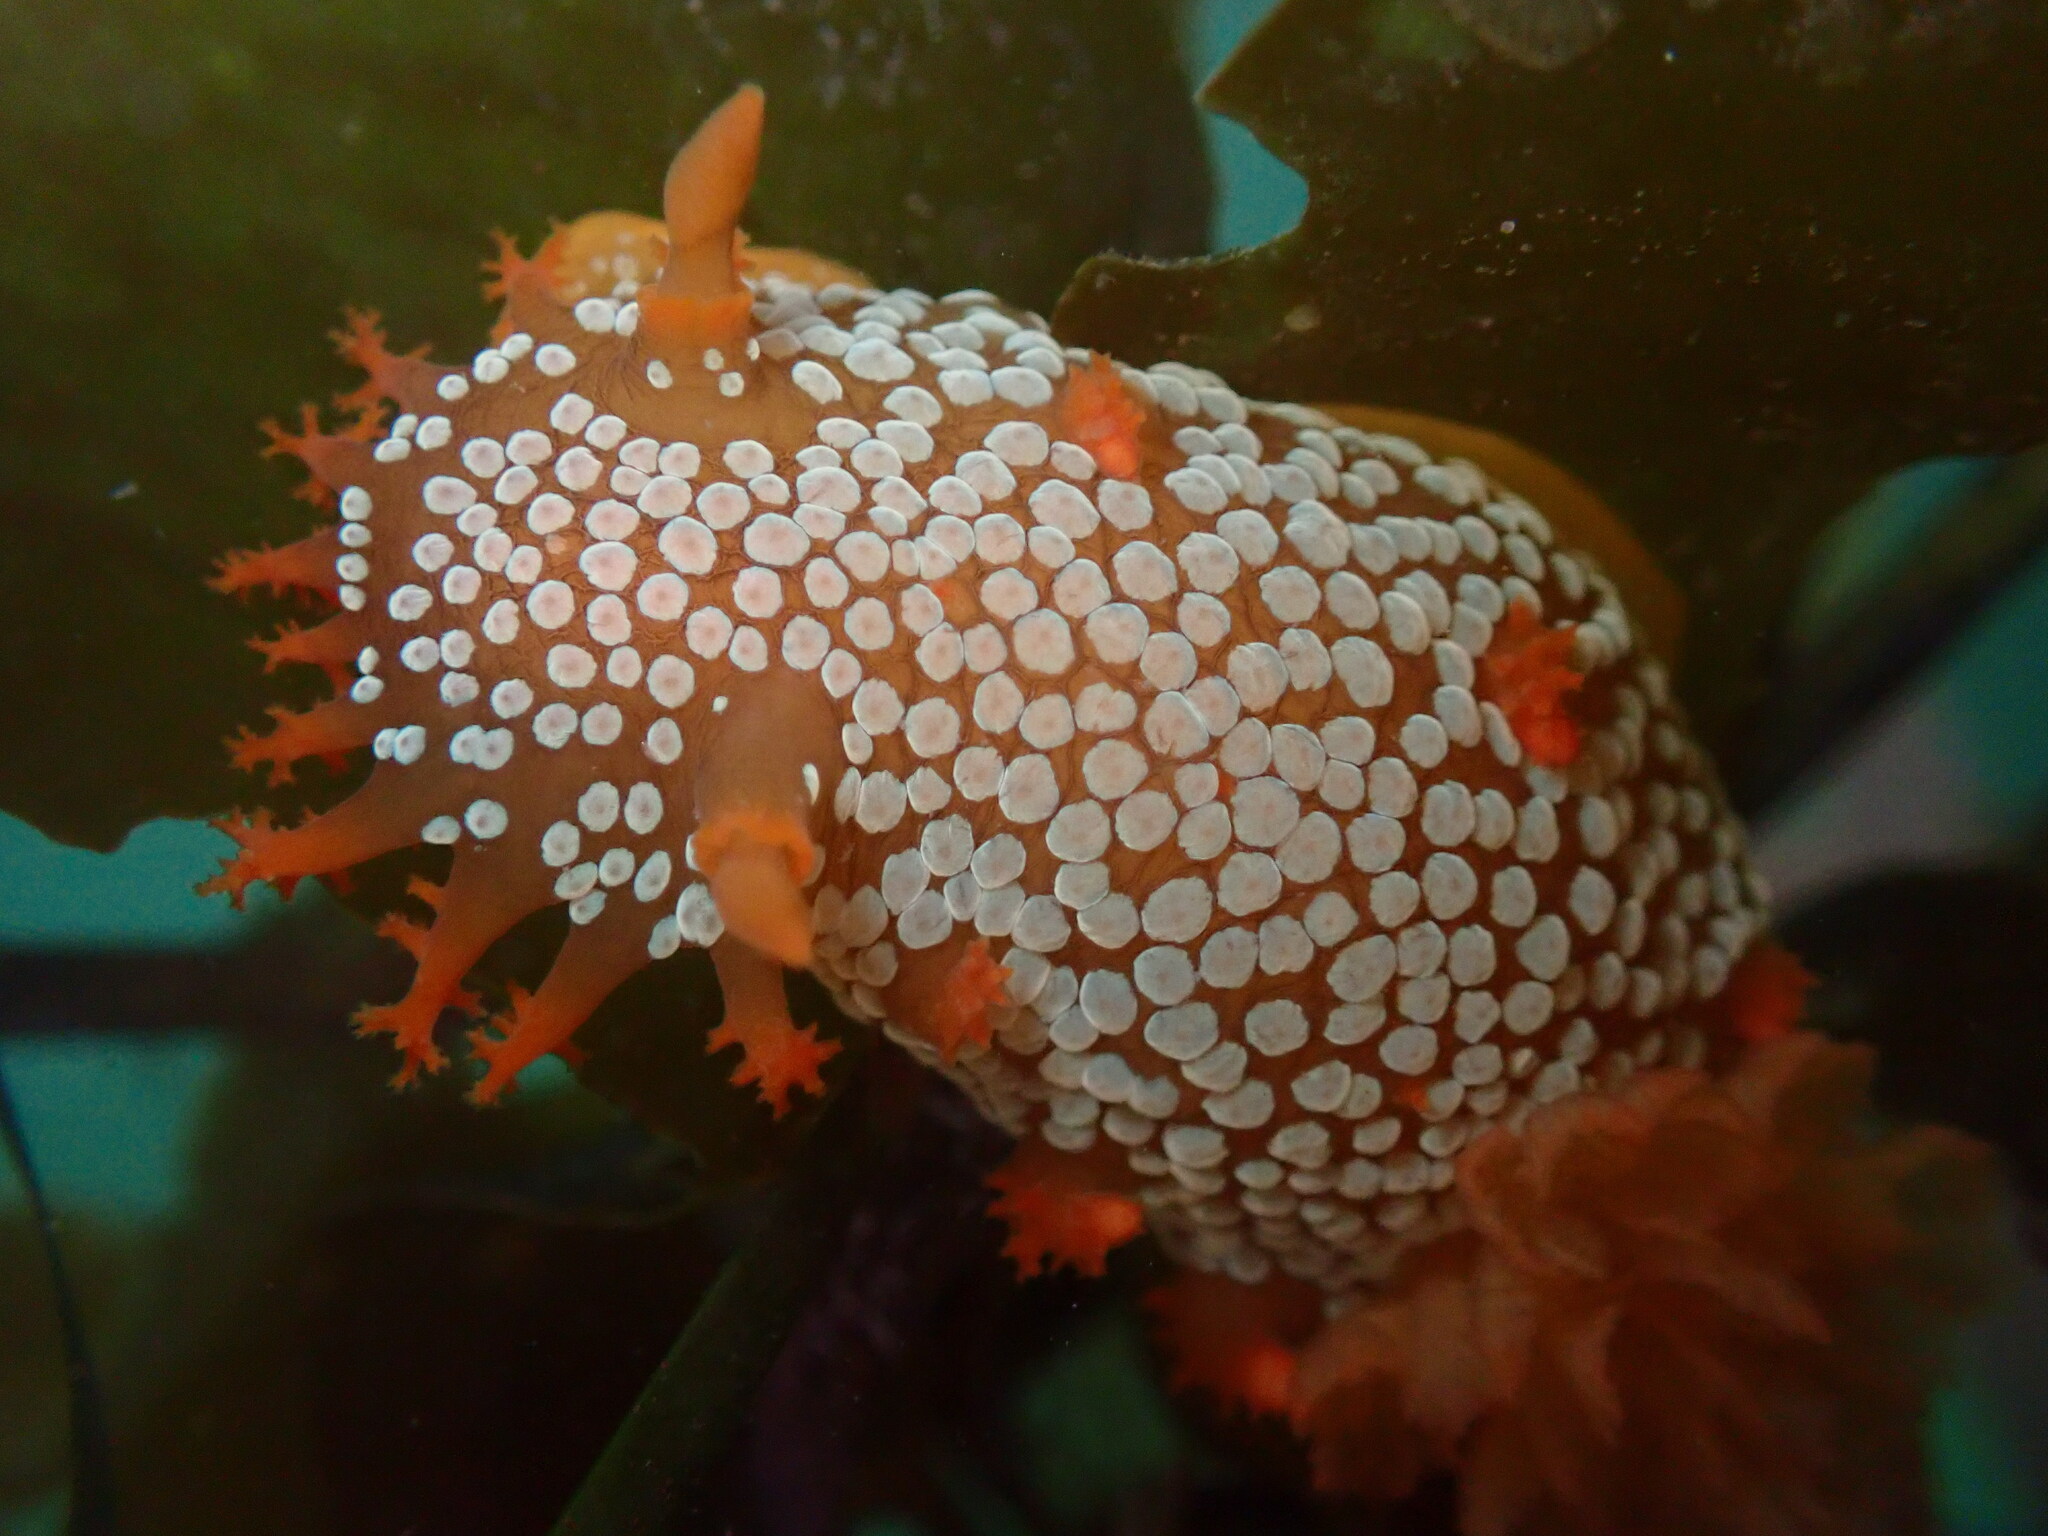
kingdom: Animalia
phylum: Mollusca
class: Gastropoda
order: Nudibranchia
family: Polyceridae
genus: Triopha
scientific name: Triopha maculata
